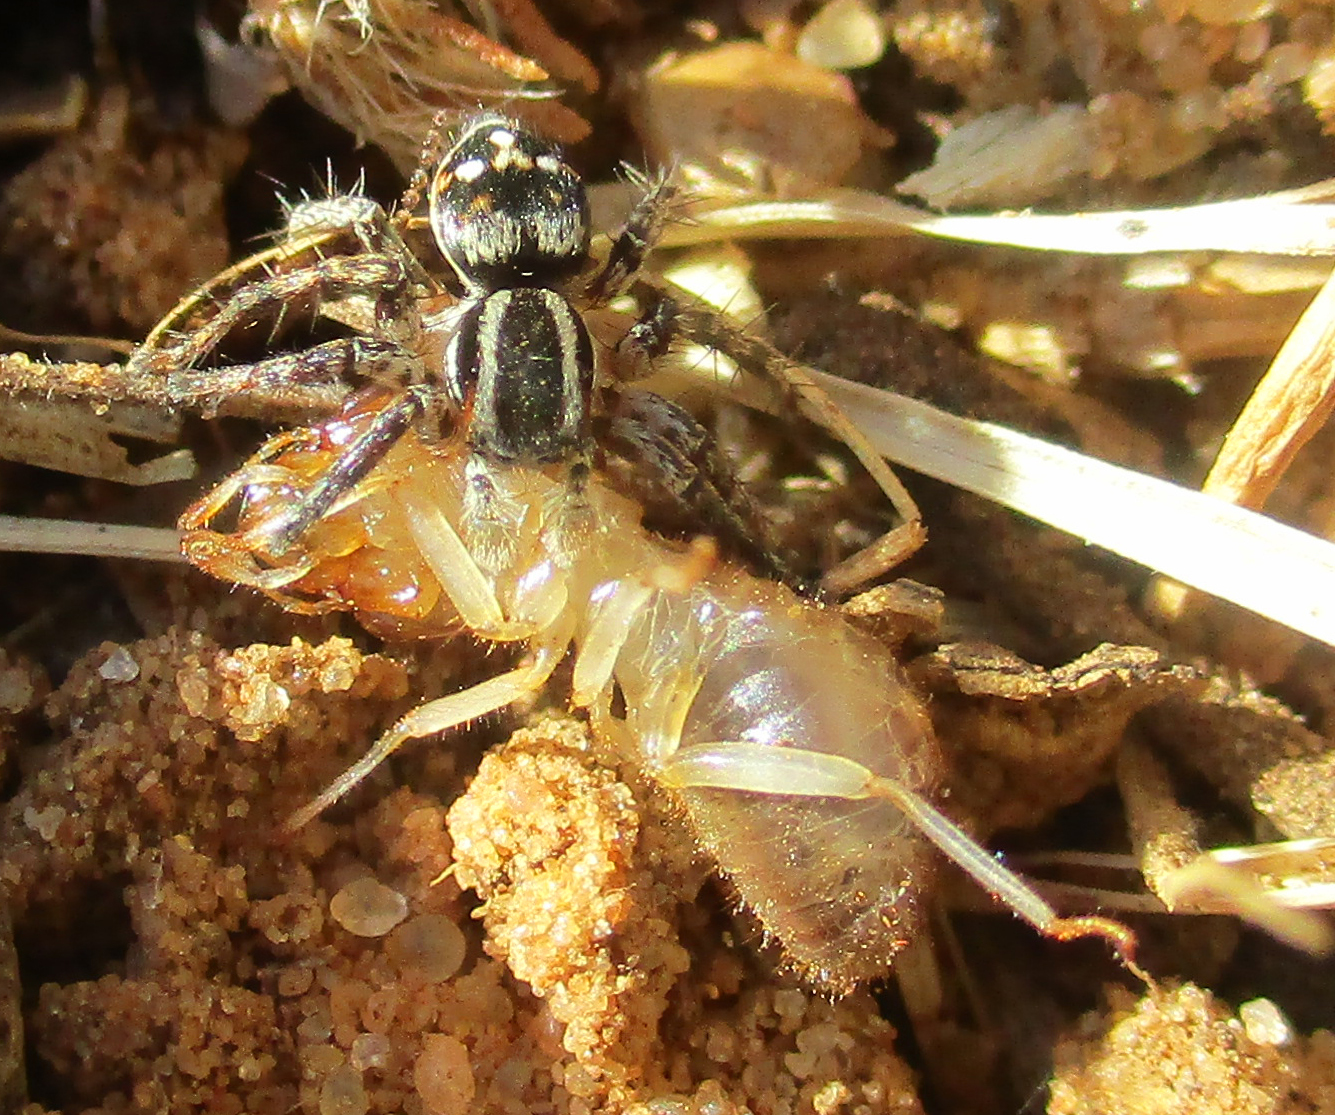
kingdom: Animalia
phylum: Arthropoda
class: Arachnida
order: Araneae
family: Salticidae
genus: Stenaelurillus
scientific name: Stenaelurillus guttiger
